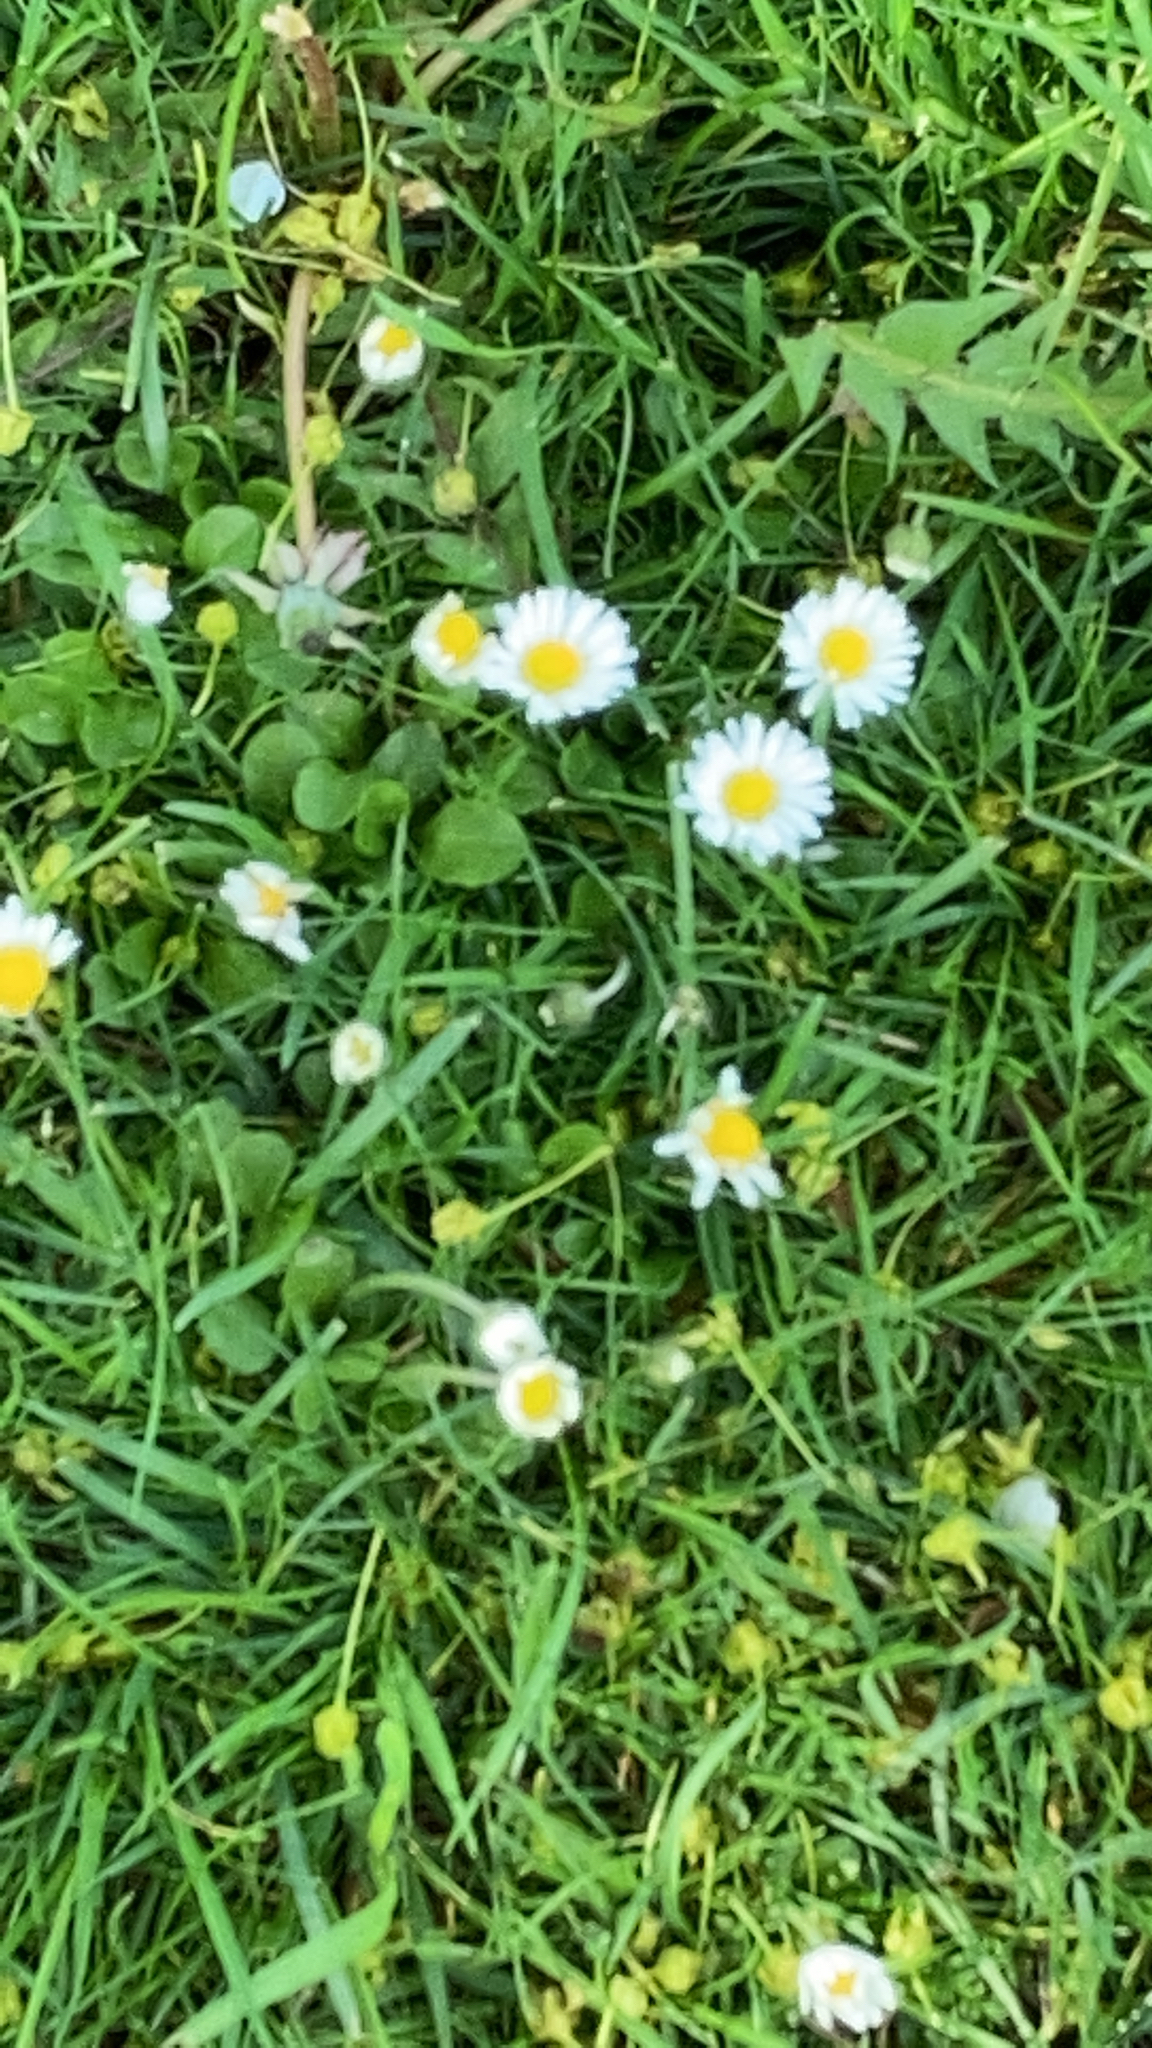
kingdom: Plantae
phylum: Tracheophyta
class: Magnoliopsida
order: Asterales
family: Asteraceae
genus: Bellis
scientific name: Bellis perennis
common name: Lawndaisy
